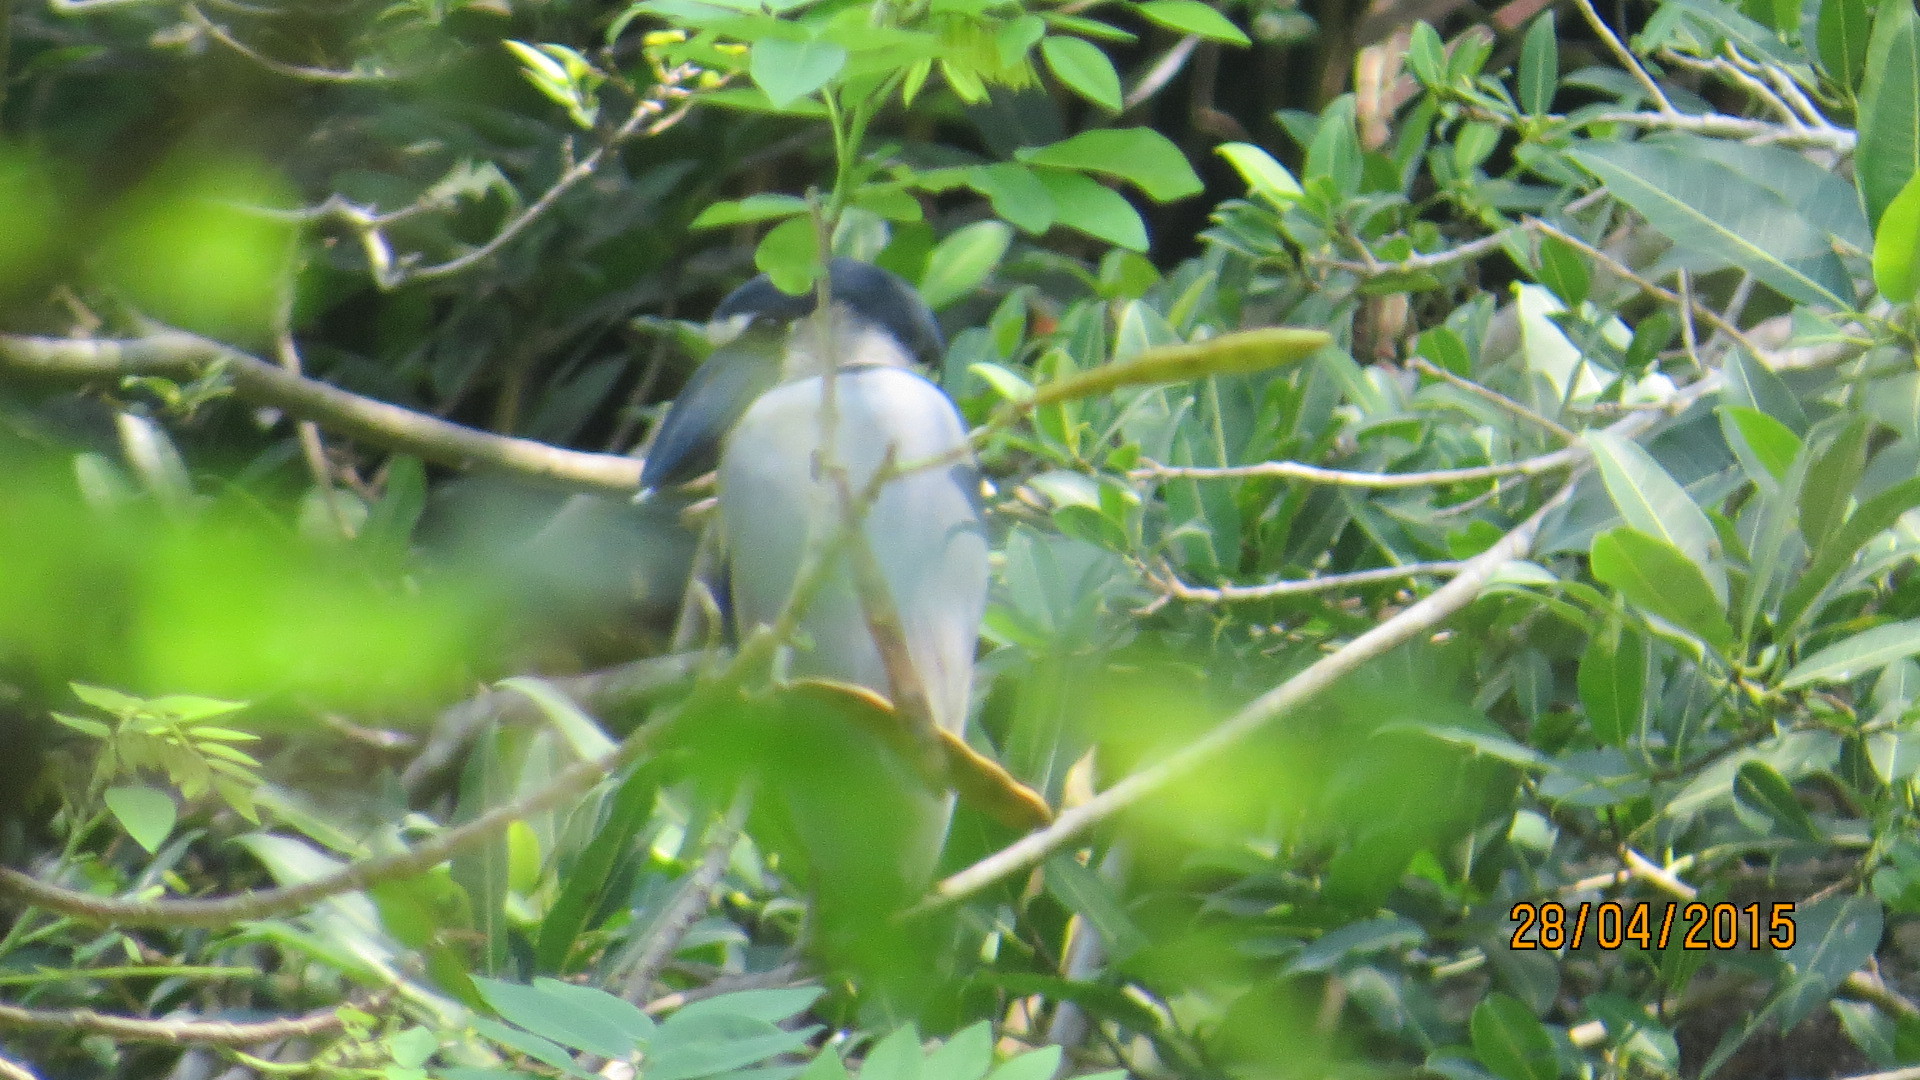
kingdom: Animalia
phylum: Chordata
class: Aves
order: Pelecaniformes
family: Ardeidae
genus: Cochlearius
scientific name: Cochlearius cochlearius
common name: Boat-billed heron
